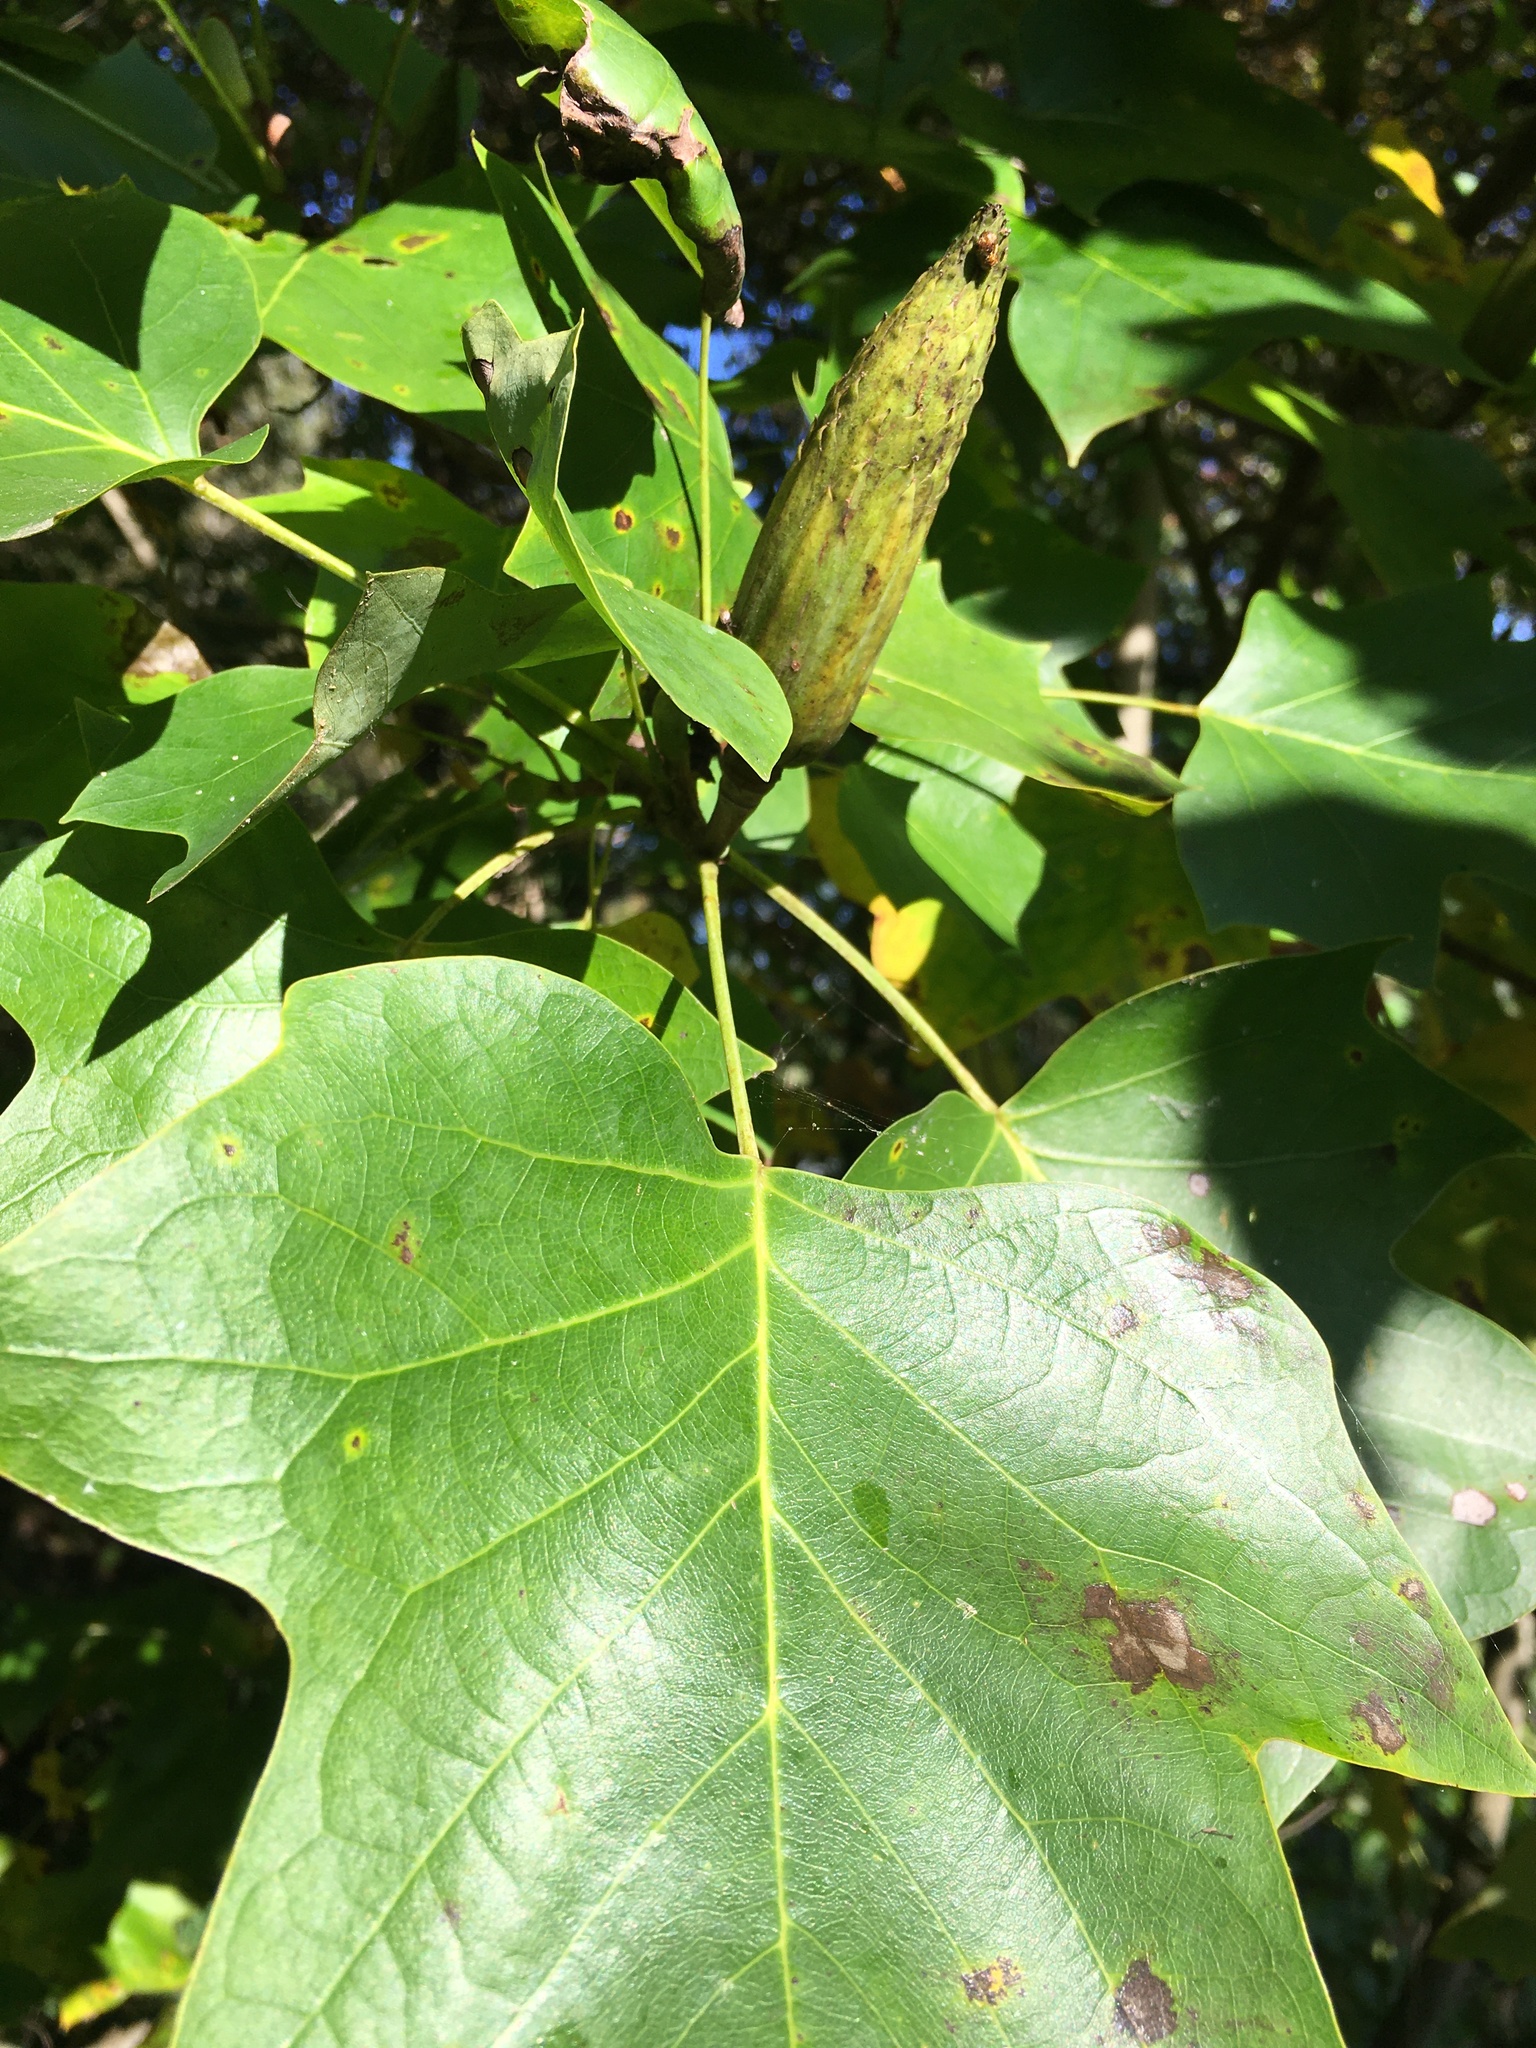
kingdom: Plantae
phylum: Tracheophyta
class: Magnoliopsida
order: Magnoliales
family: Magnoliaceae
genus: Liriodendron
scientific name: Liriodendron tulipifera
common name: Tulip tree
